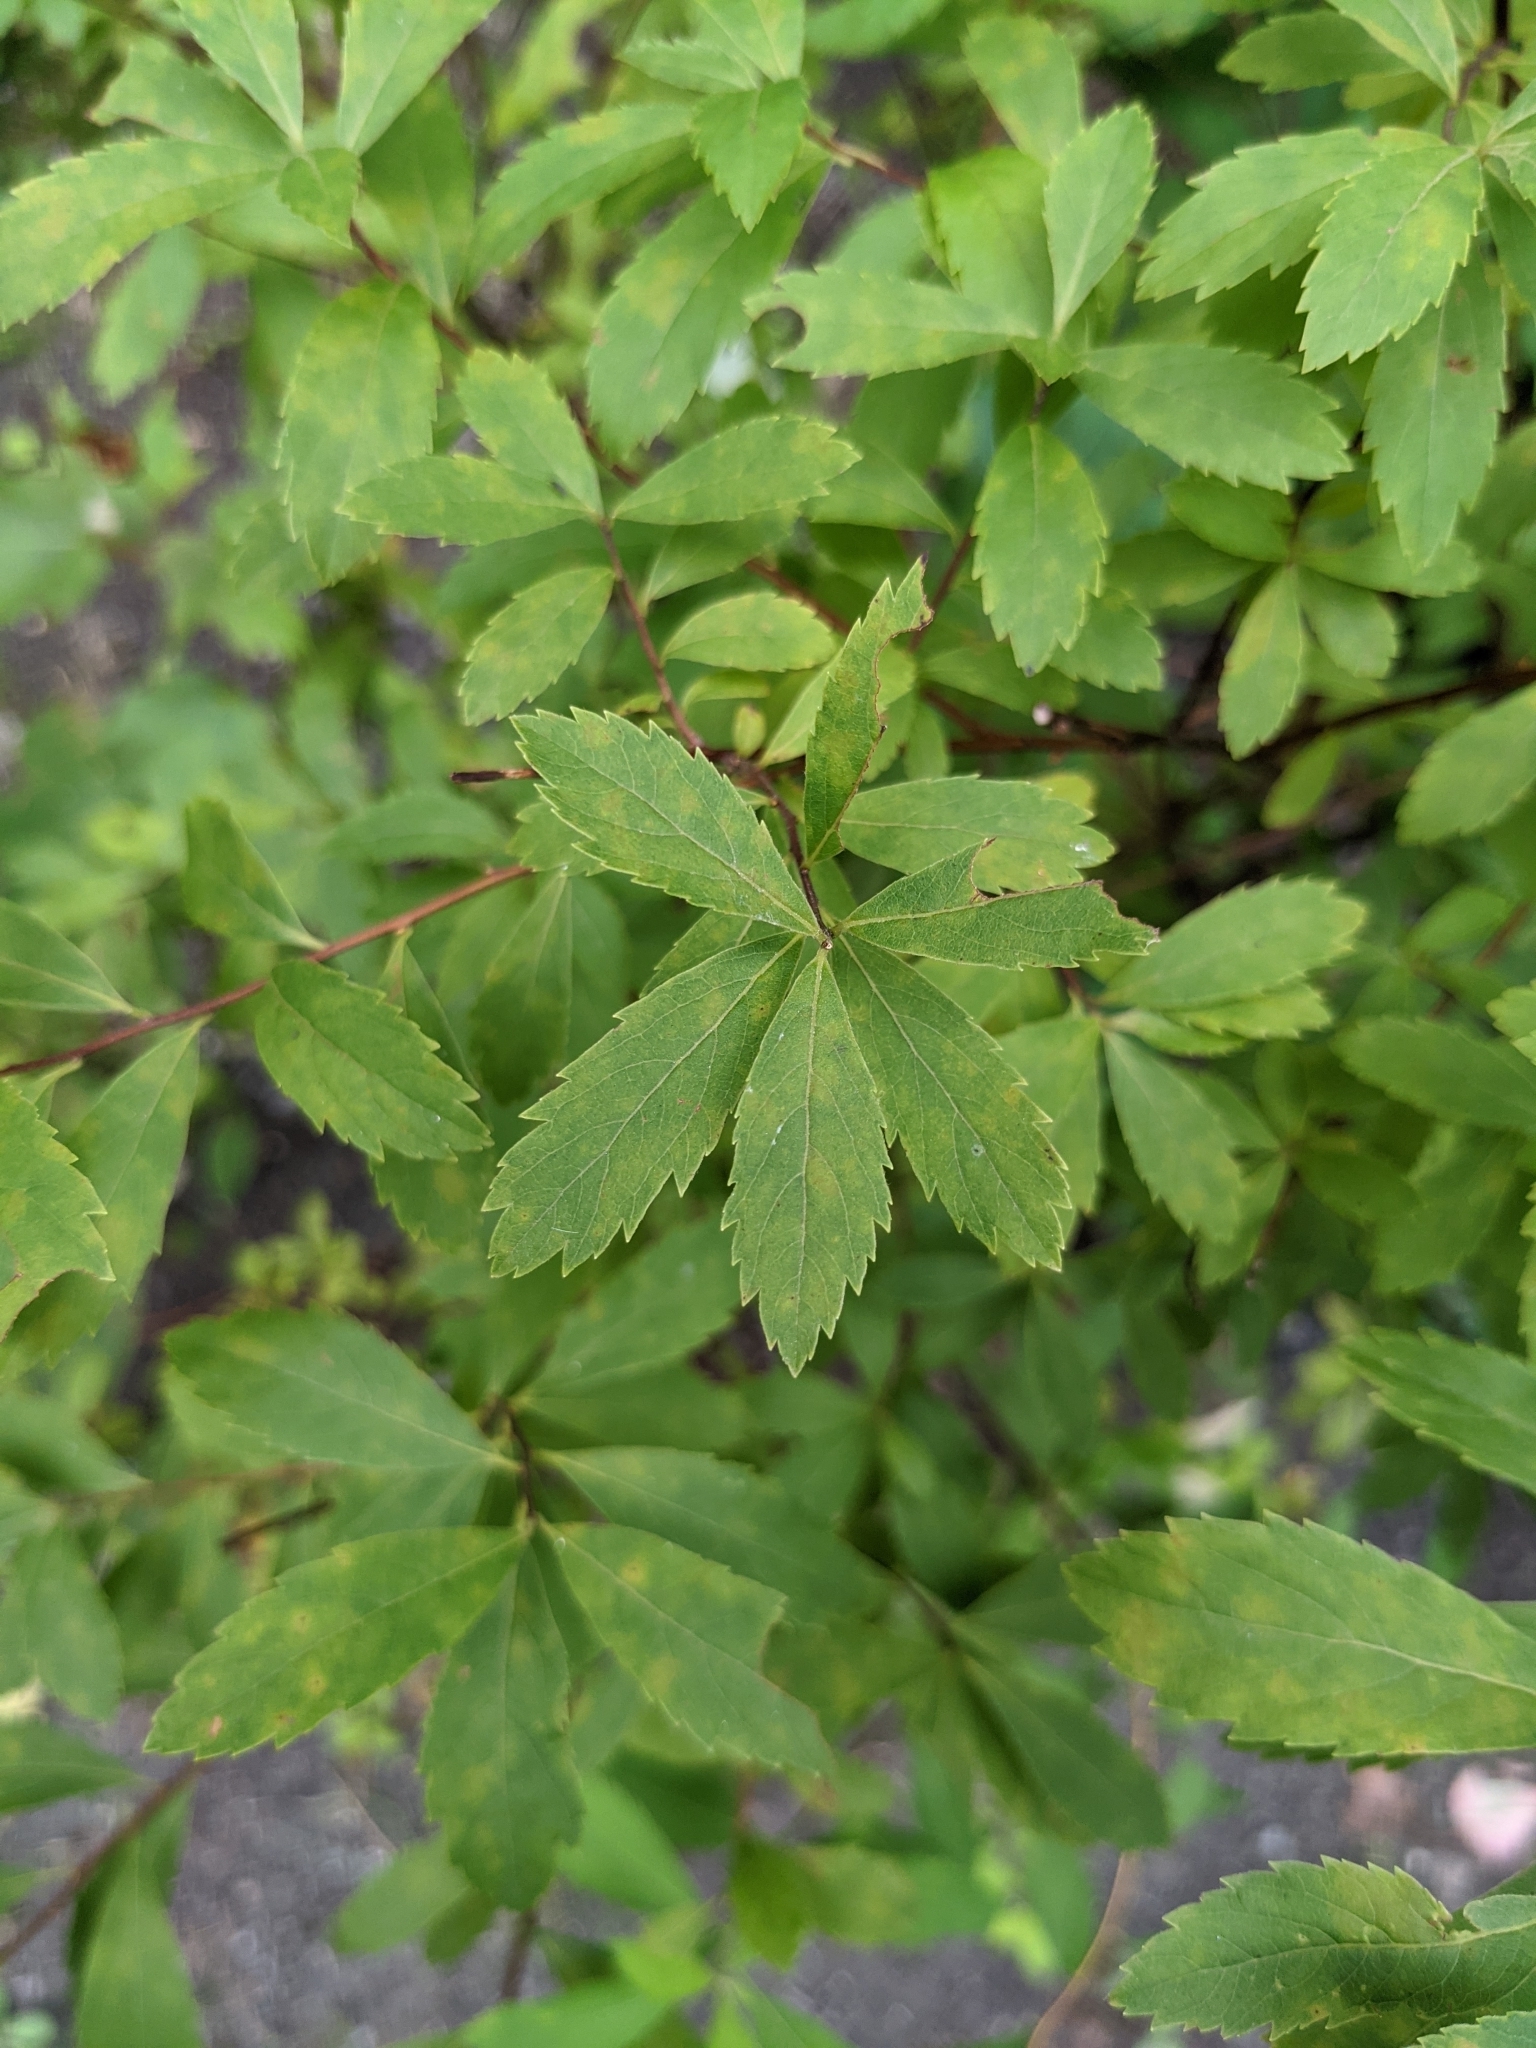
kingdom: Plantae
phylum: Tracheophyta
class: Magnoliopsida
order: Rosales
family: Rosaceae
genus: Spiraea
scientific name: Spiraea alba
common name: Pale bridewort
